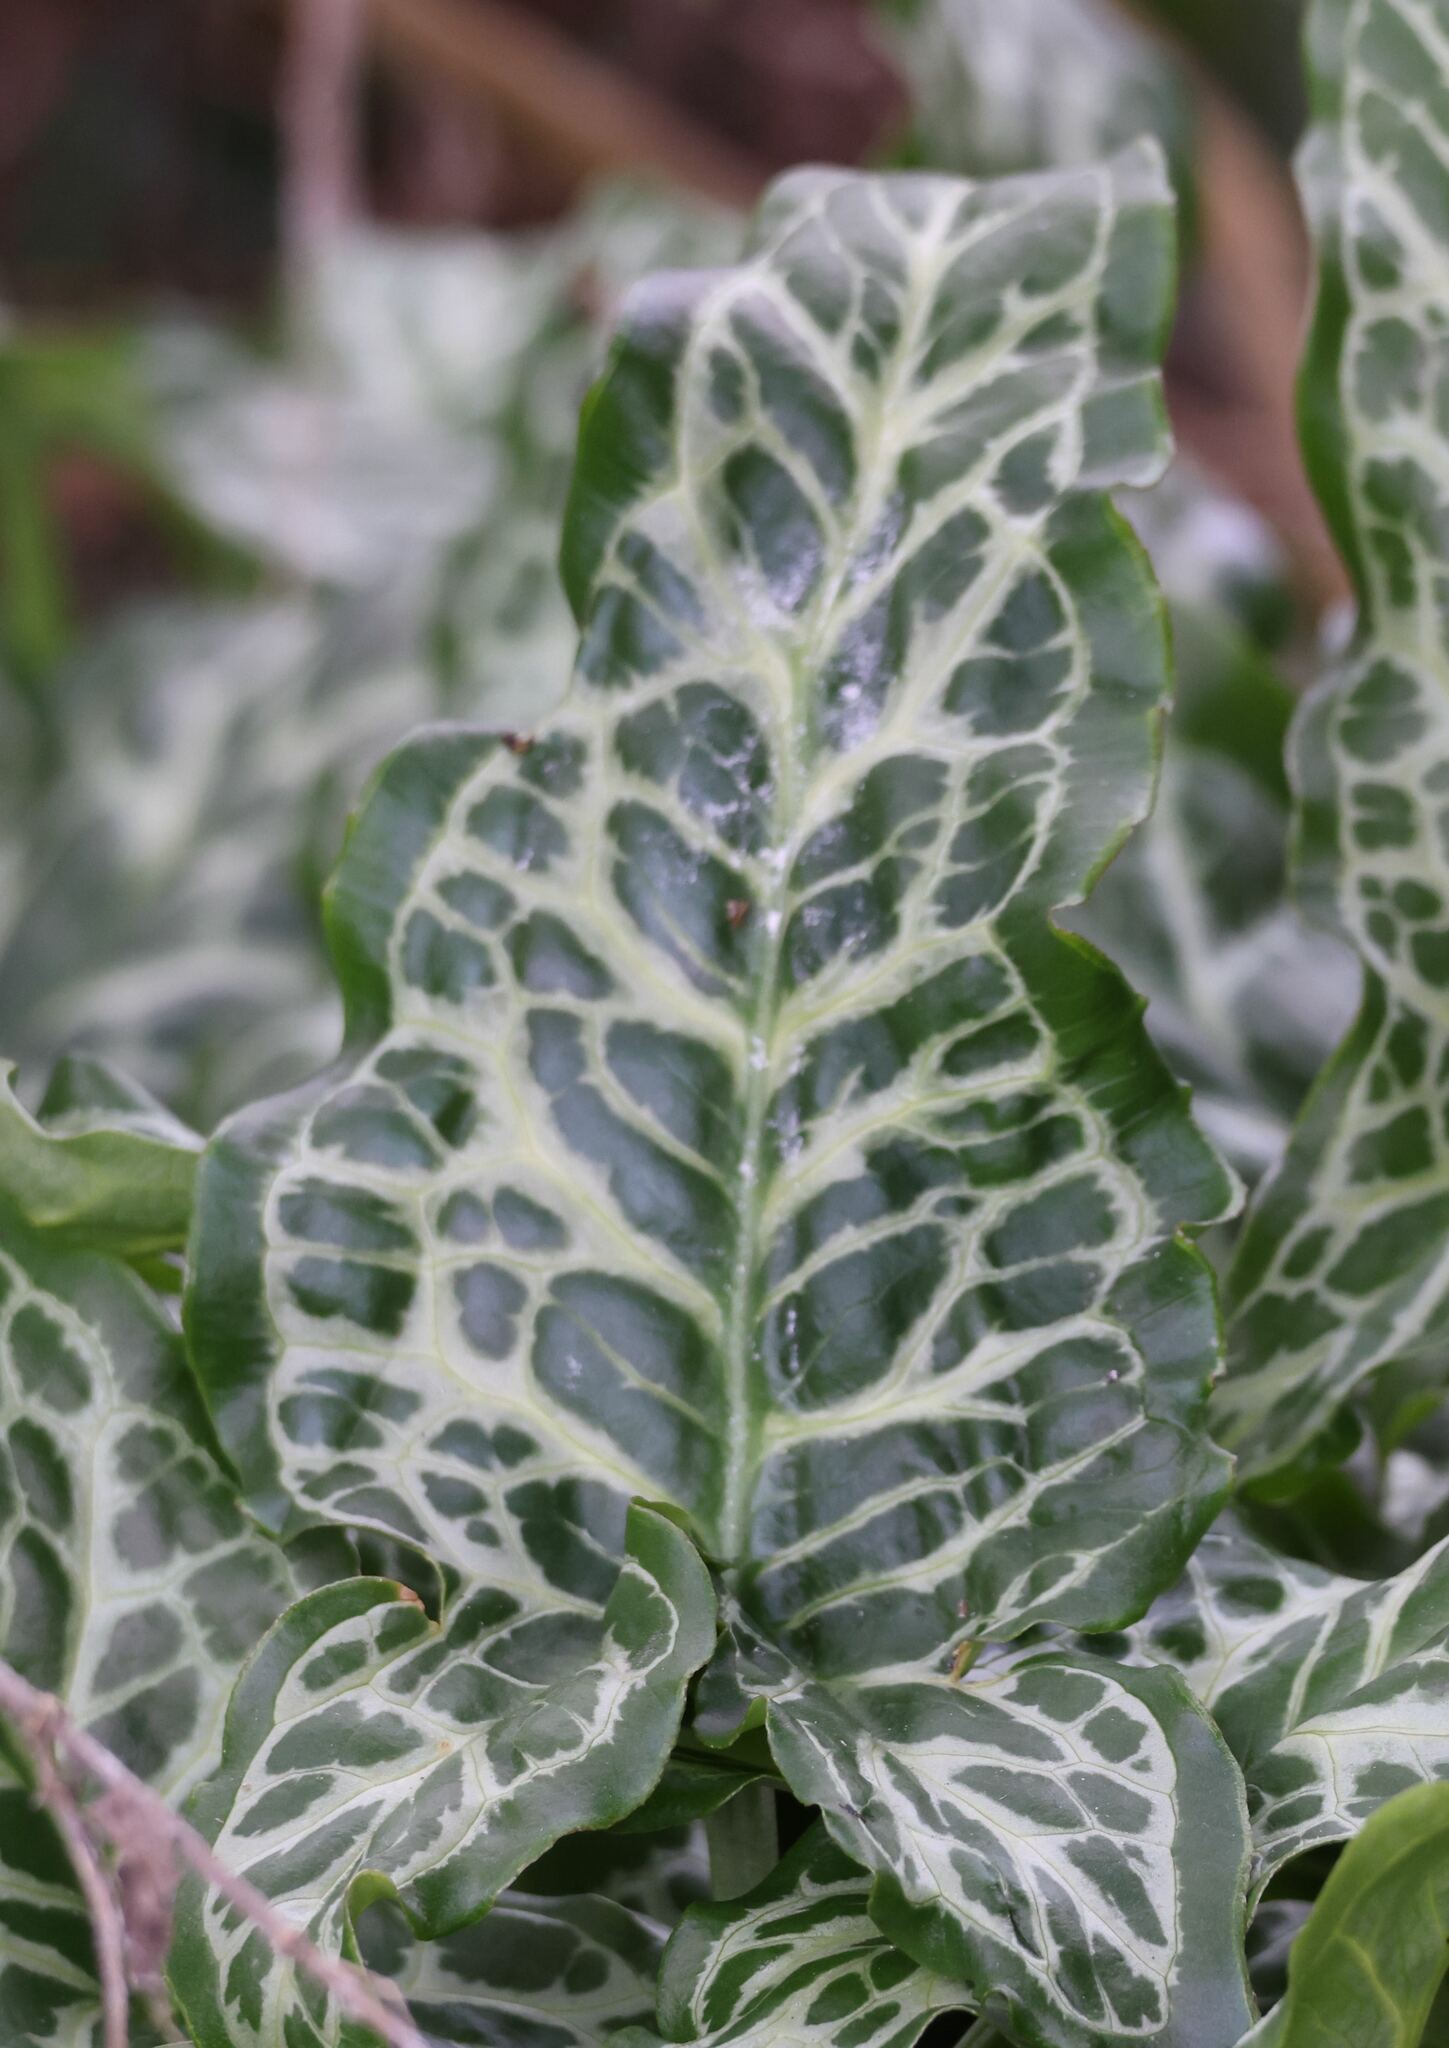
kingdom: Plantae
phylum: Tracheophyta
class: Liliopsida
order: Alismatales
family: Araceae
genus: Arum
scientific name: Arum italicum
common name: Italian lords-and-ladies
